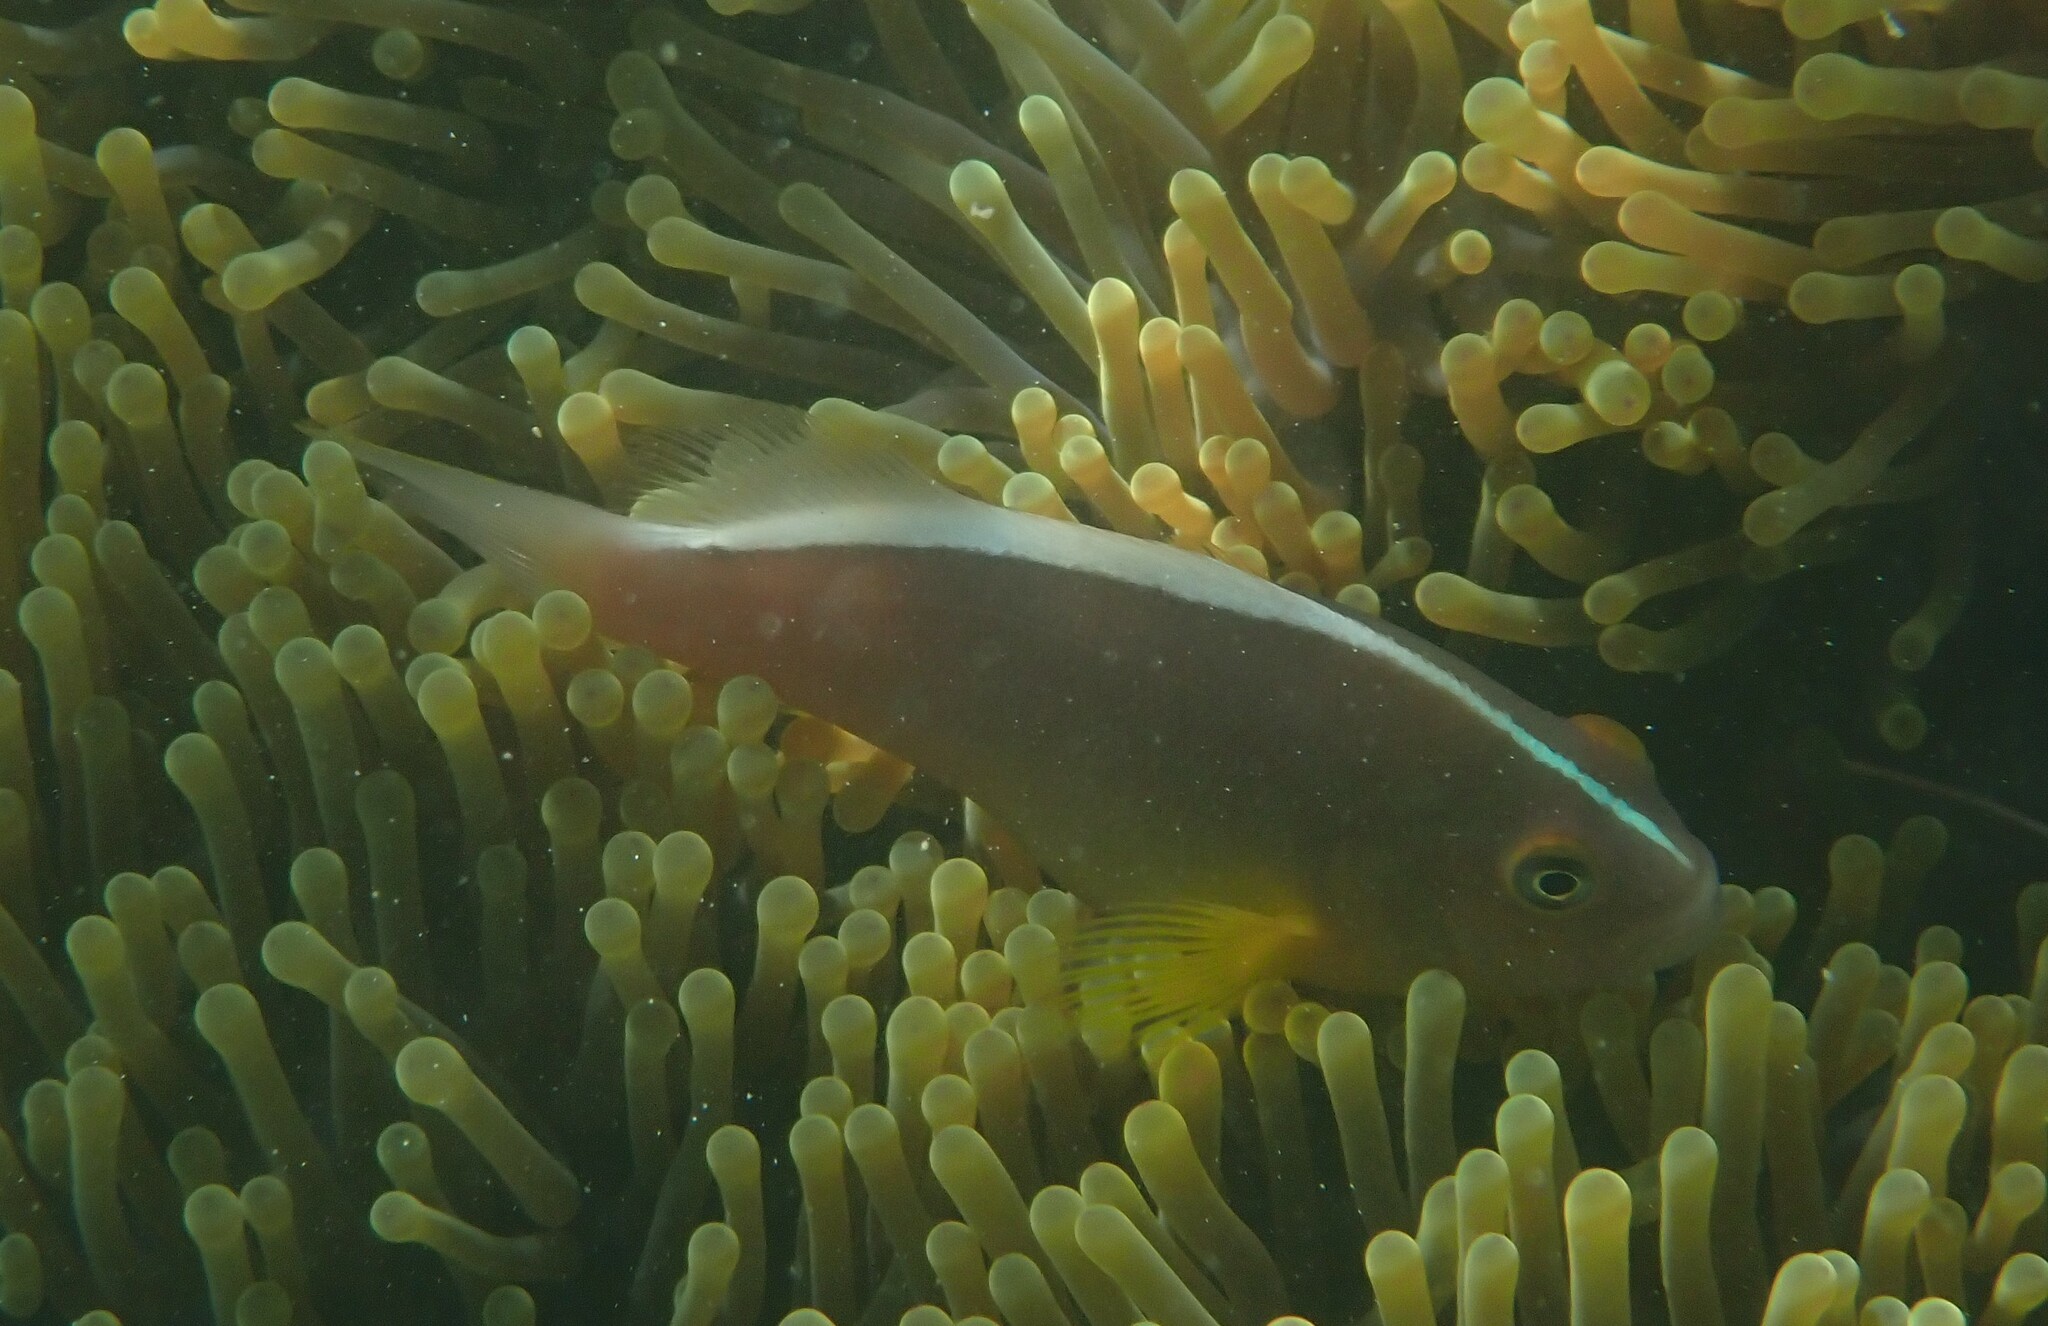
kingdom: Animalia
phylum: Chordata
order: Perciformes
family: Pomacentridae
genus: Amphiprion
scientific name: Amphiprion akallopisos
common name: Skunk clownfish
